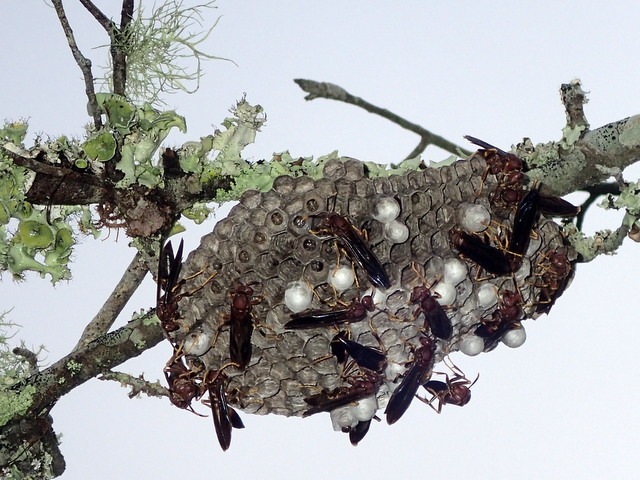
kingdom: Animalia
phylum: Arthropoda
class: Insecta
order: Hymenoptera
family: Eumenidae
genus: Polistes
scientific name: Polistes annularis
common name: Ringed paper wasp
